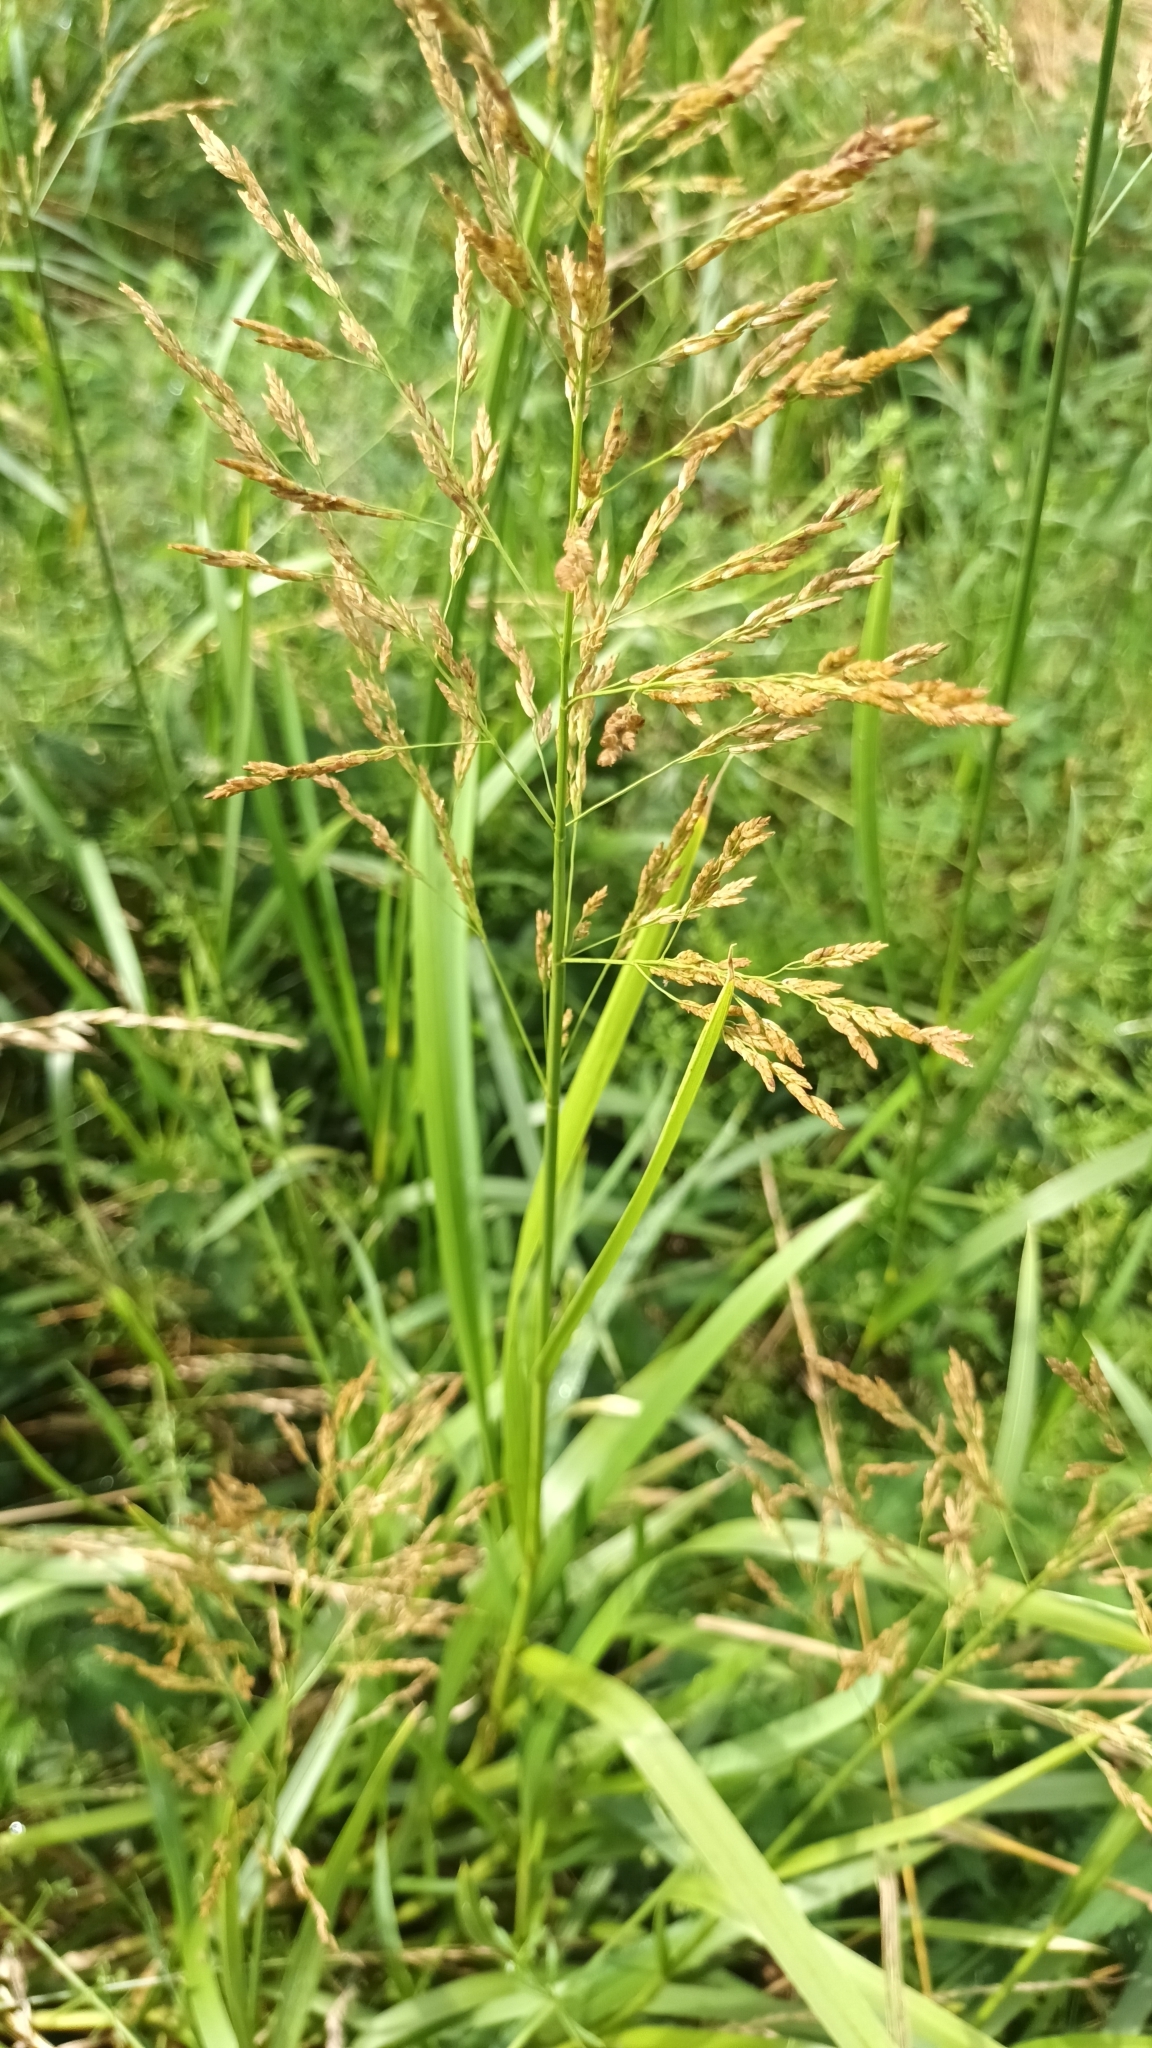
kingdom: Plantae
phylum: Tracheophyta
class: Liliopsida
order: Poales
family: Poaceae
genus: Glyceria
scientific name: Glyceria maxima
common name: Reed mannagrass
